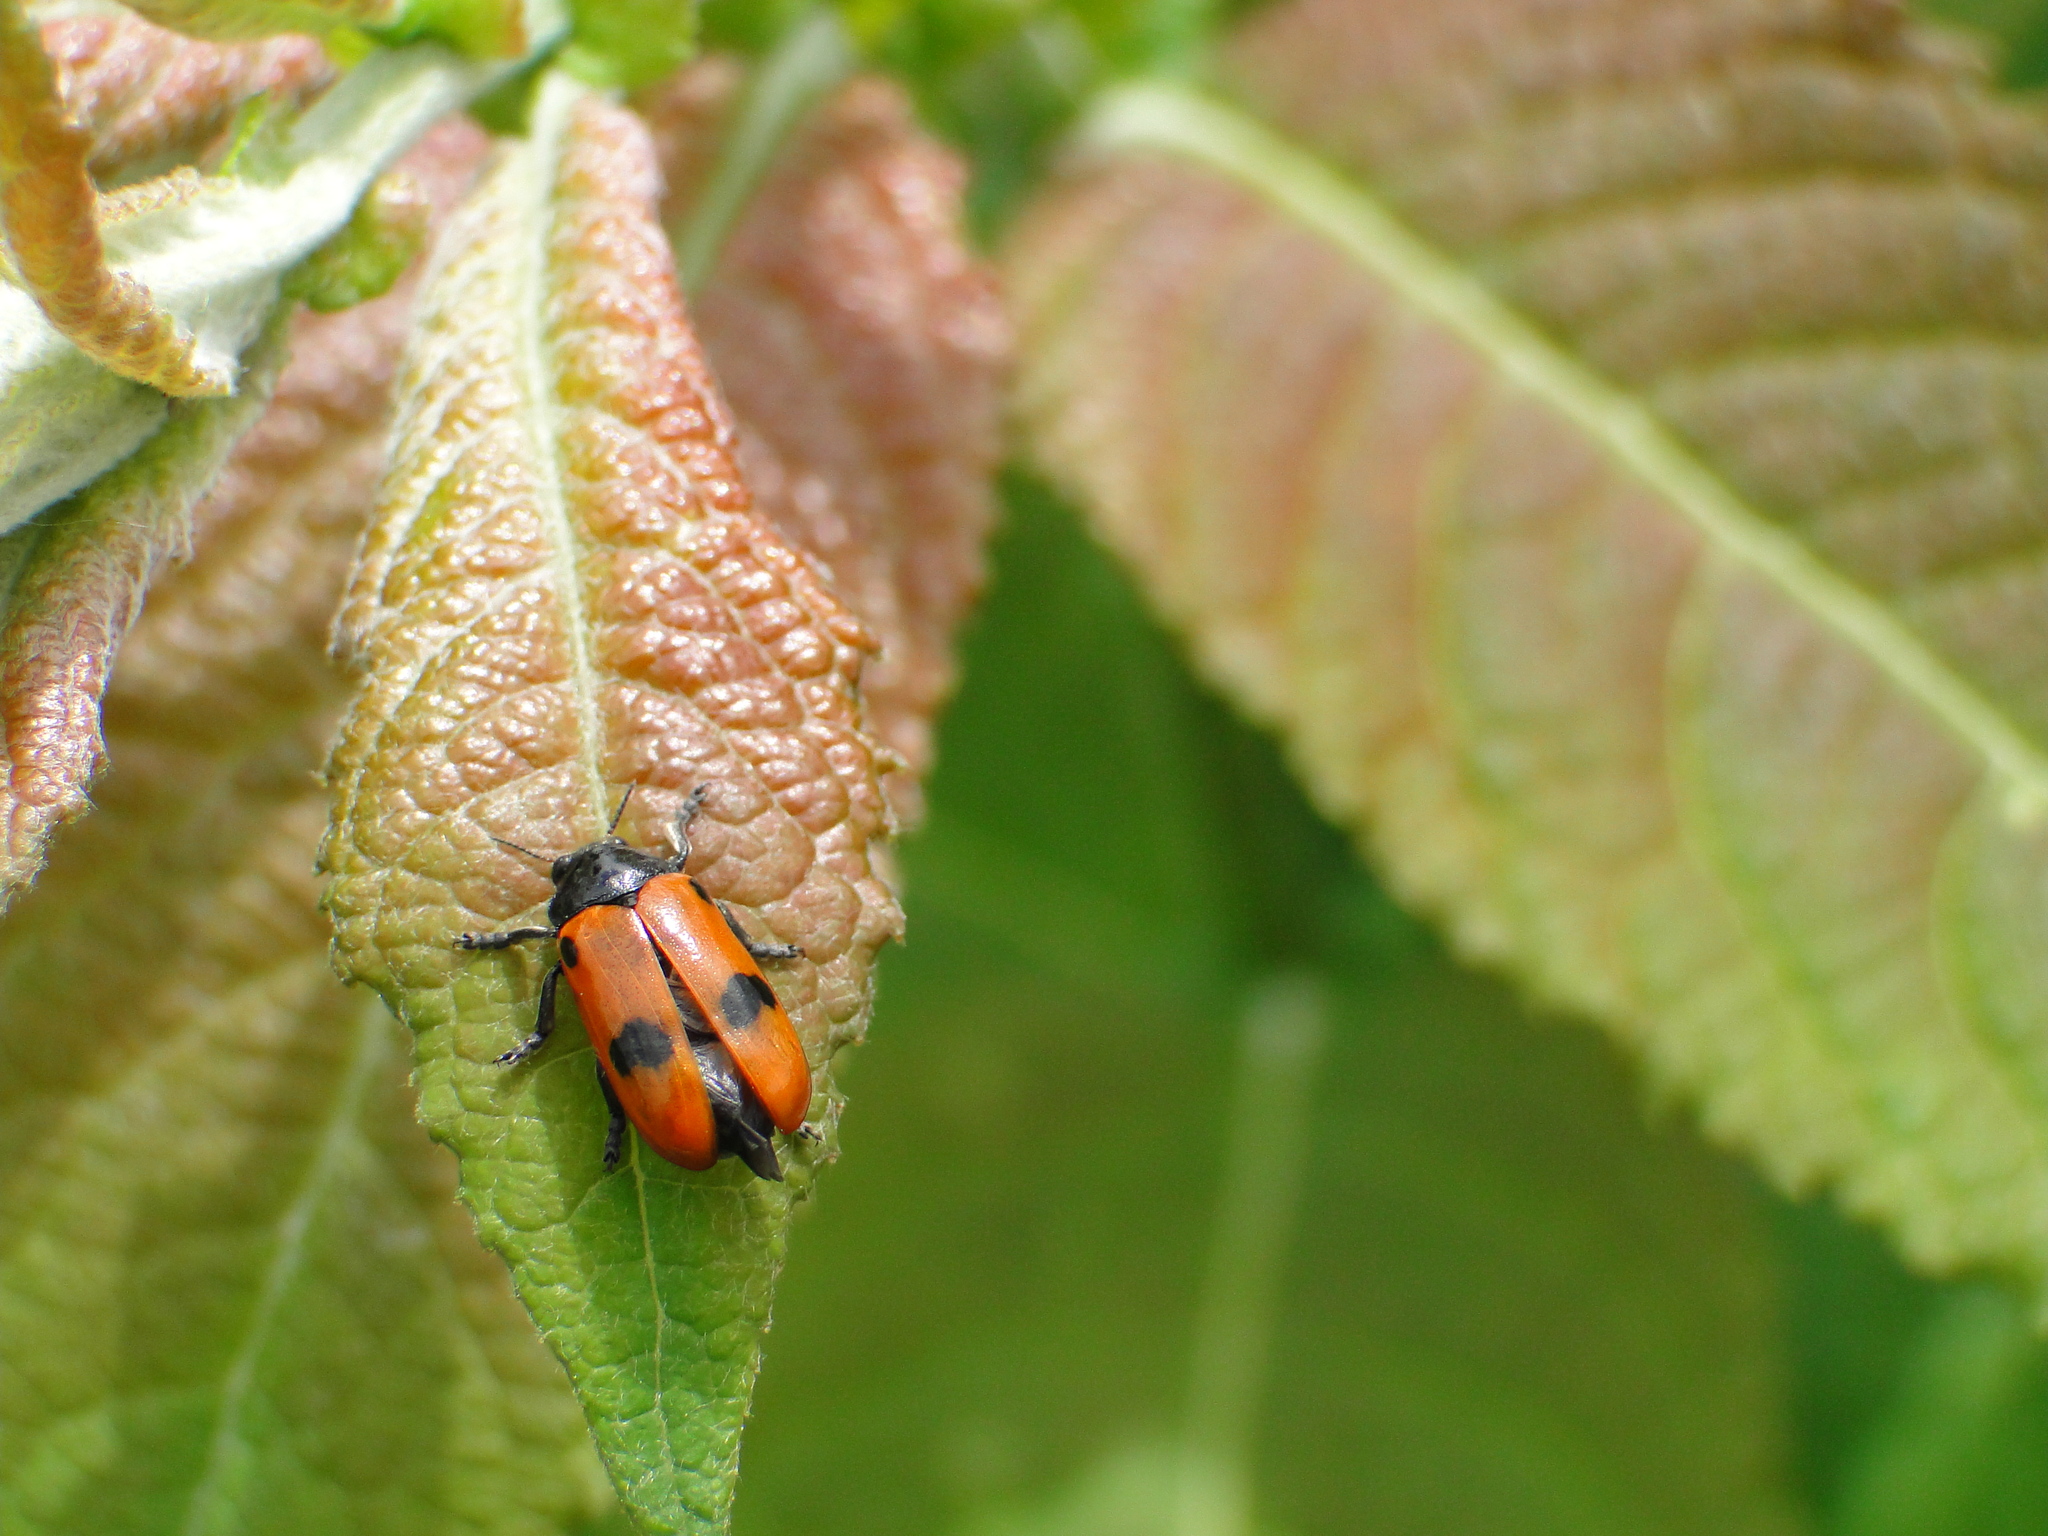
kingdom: Animalia
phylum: Arthropoda
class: Insecta
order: Coleoptera
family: Chrysomelidae
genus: Clytra
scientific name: Clytra quadripunctata
